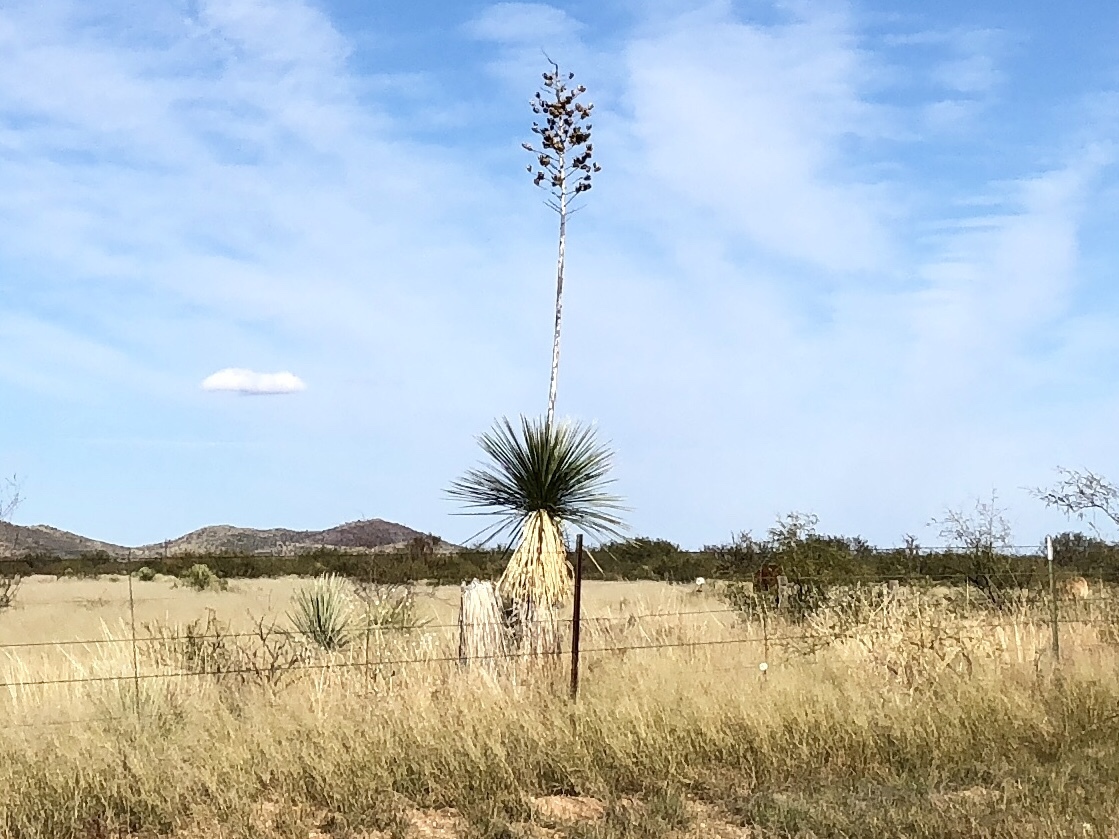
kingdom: Plantae
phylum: Tracheophyta
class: Liliopsida
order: Asparagales
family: Asparagaceae
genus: Yucca
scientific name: Yucca elata
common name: Palmella
